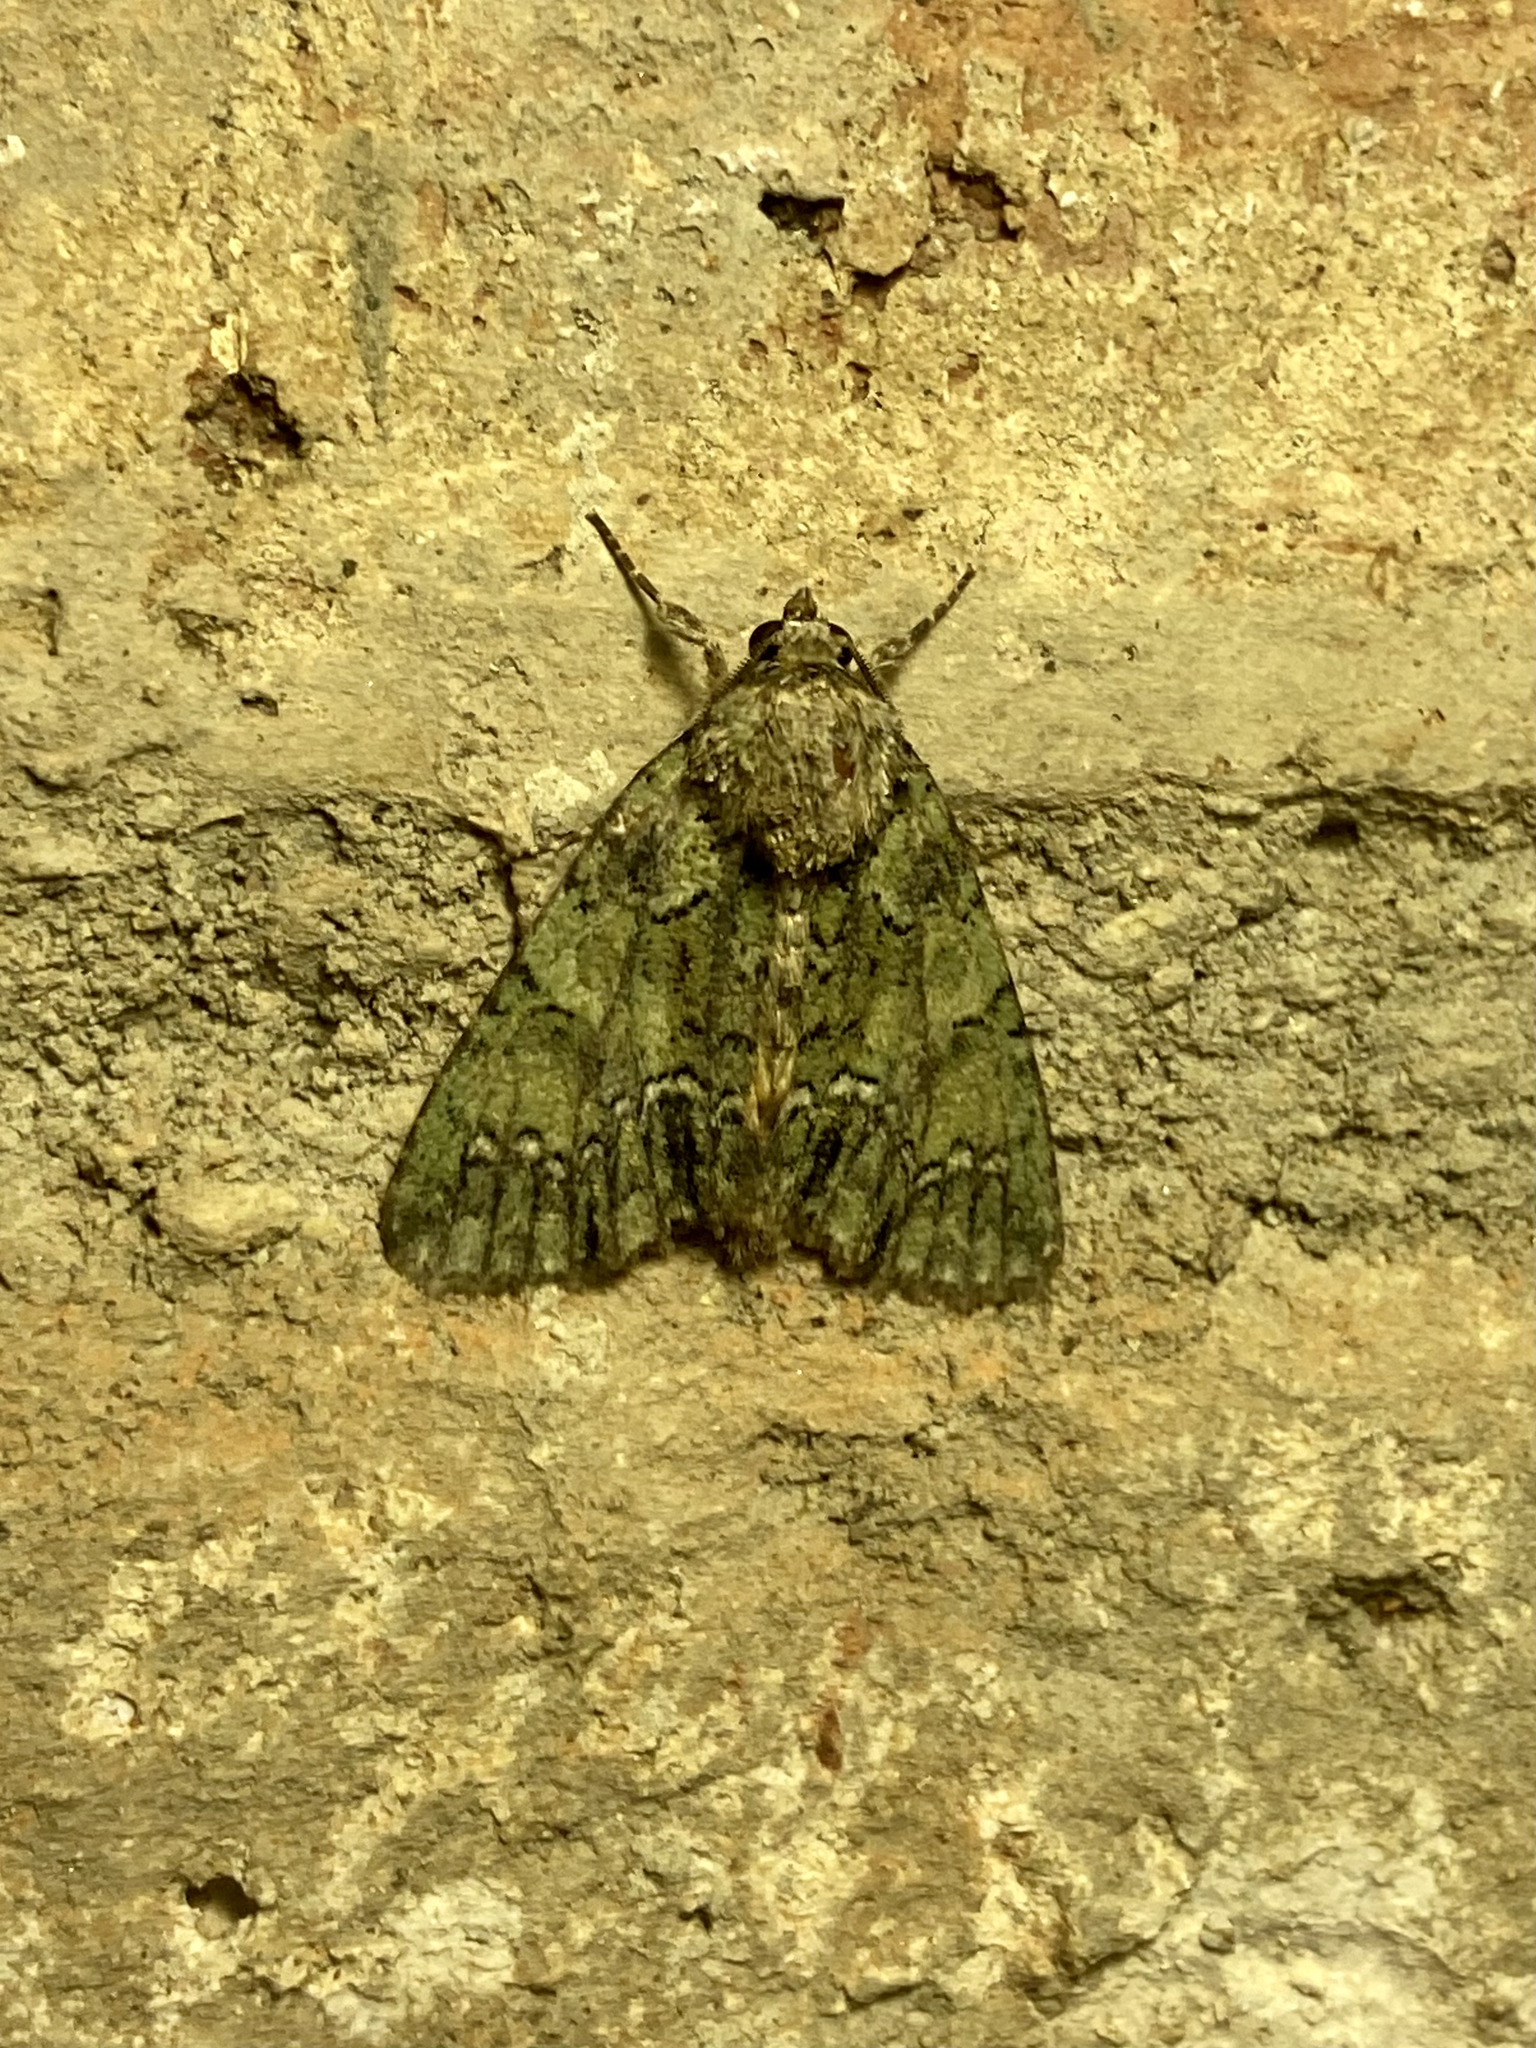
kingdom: Animalia
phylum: Arthropoda
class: Insecta
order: Lepidoptera
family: Noctuidae
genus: Polyphaenis
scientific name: Polyphaenis sericata
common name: Guernsey underwing
